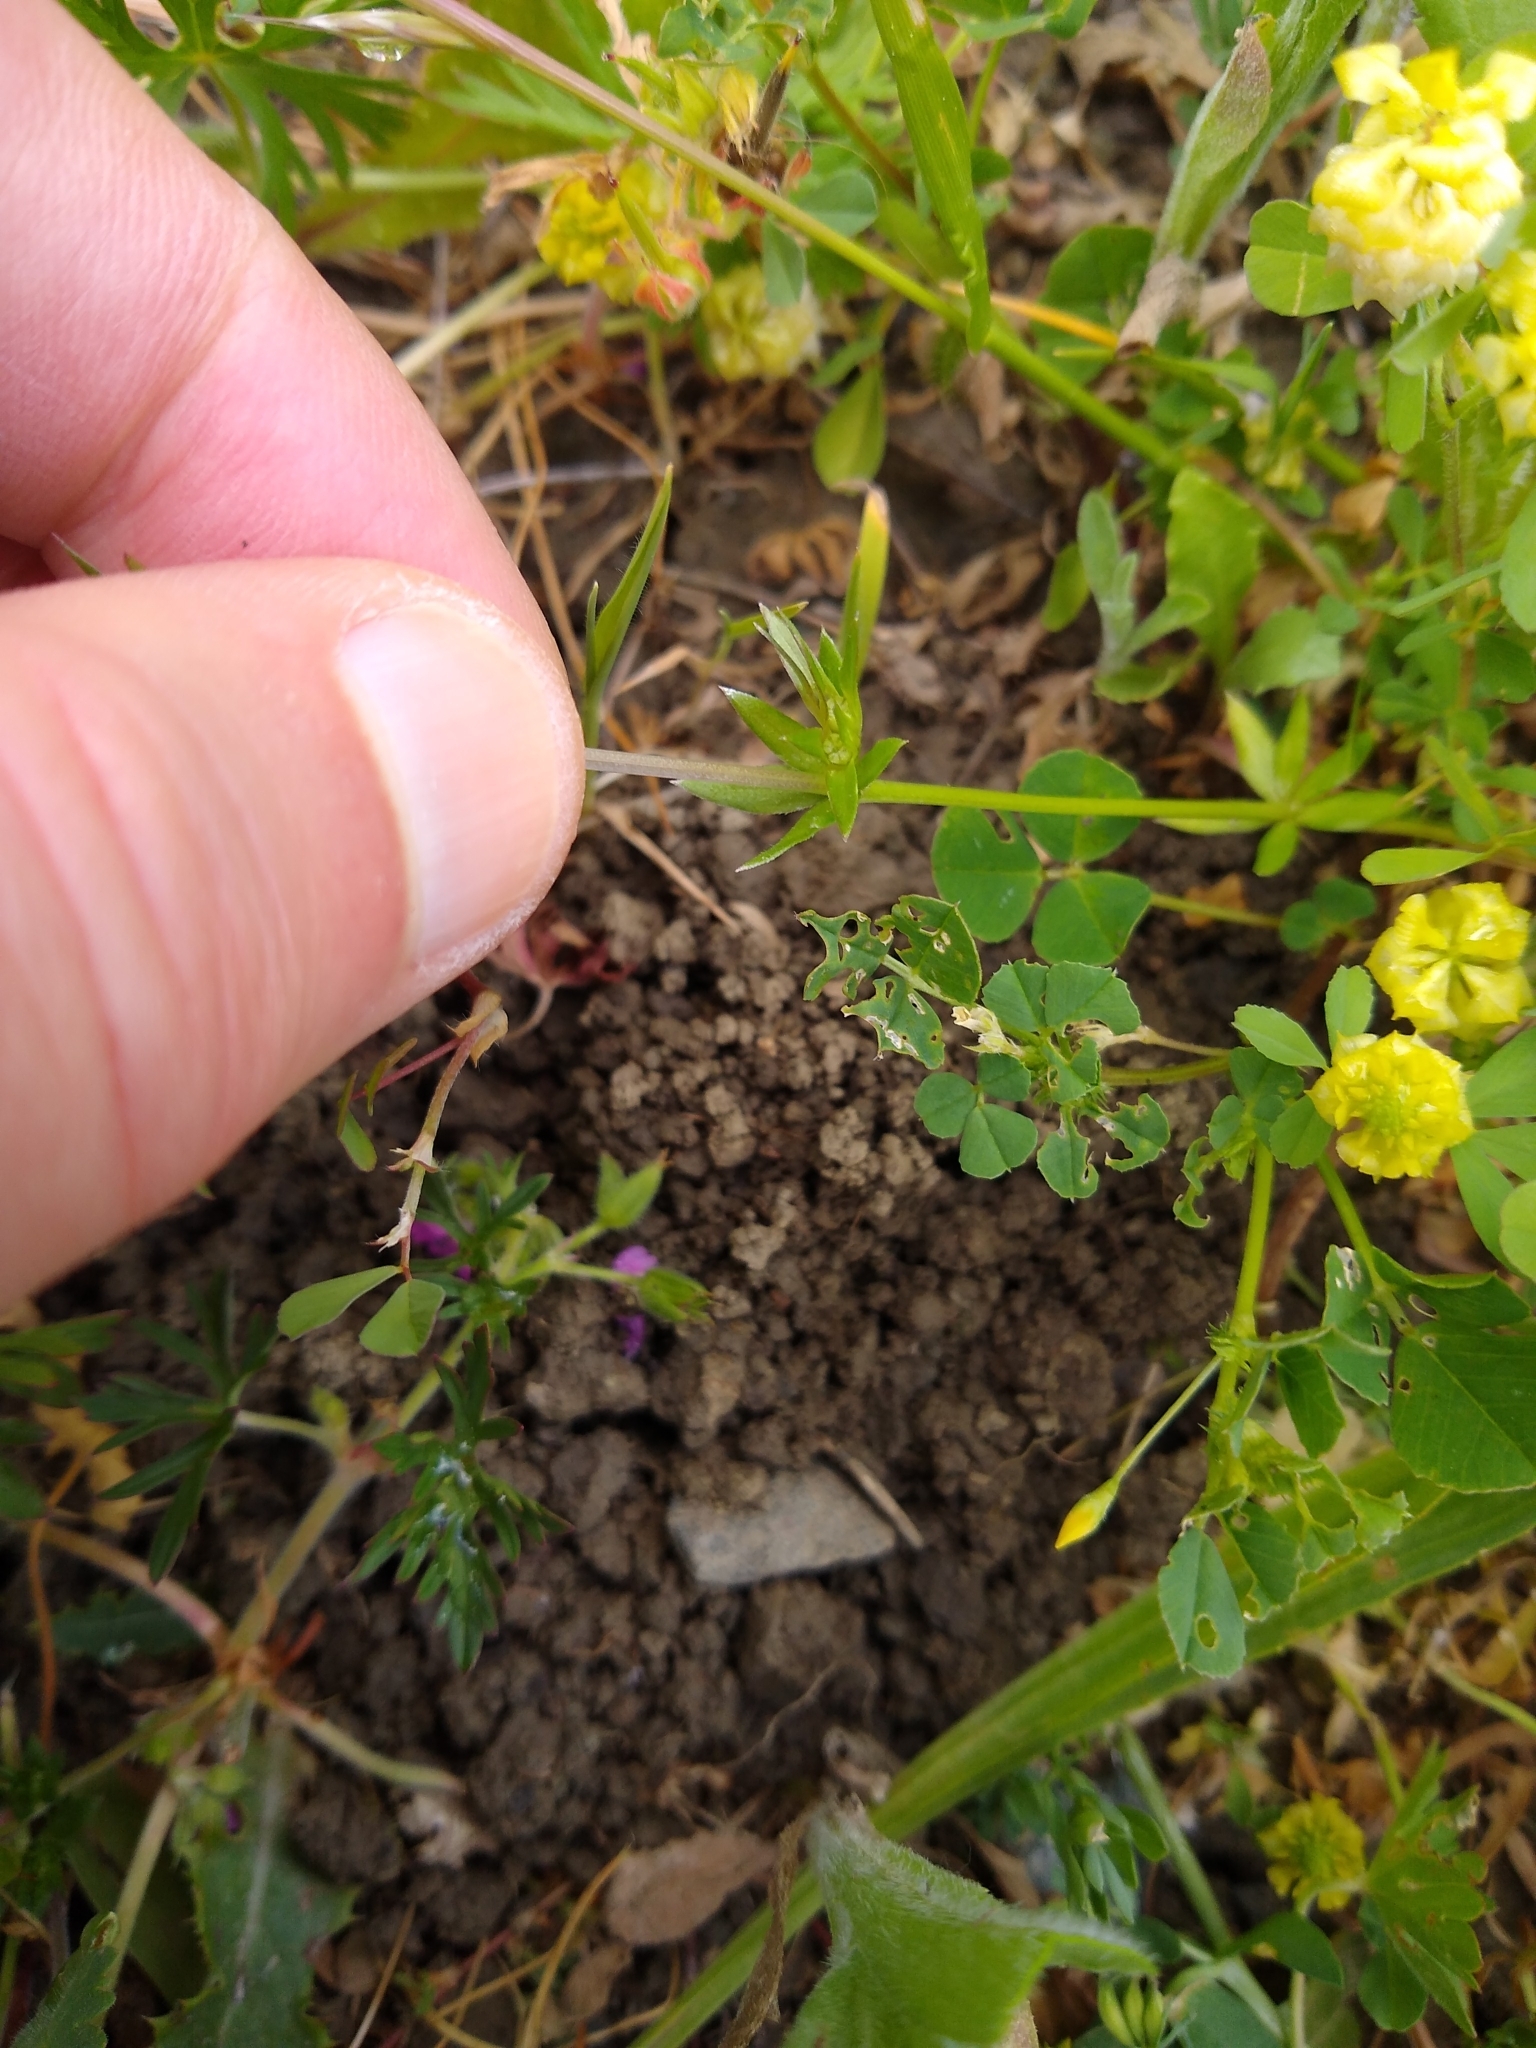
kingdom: Plantae
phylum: Tracheophyta
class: Magnoliopsida
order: Gentianales
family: Rubiaceae
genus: Sherardia
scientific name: Sherardia arvensis
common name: Field madder
